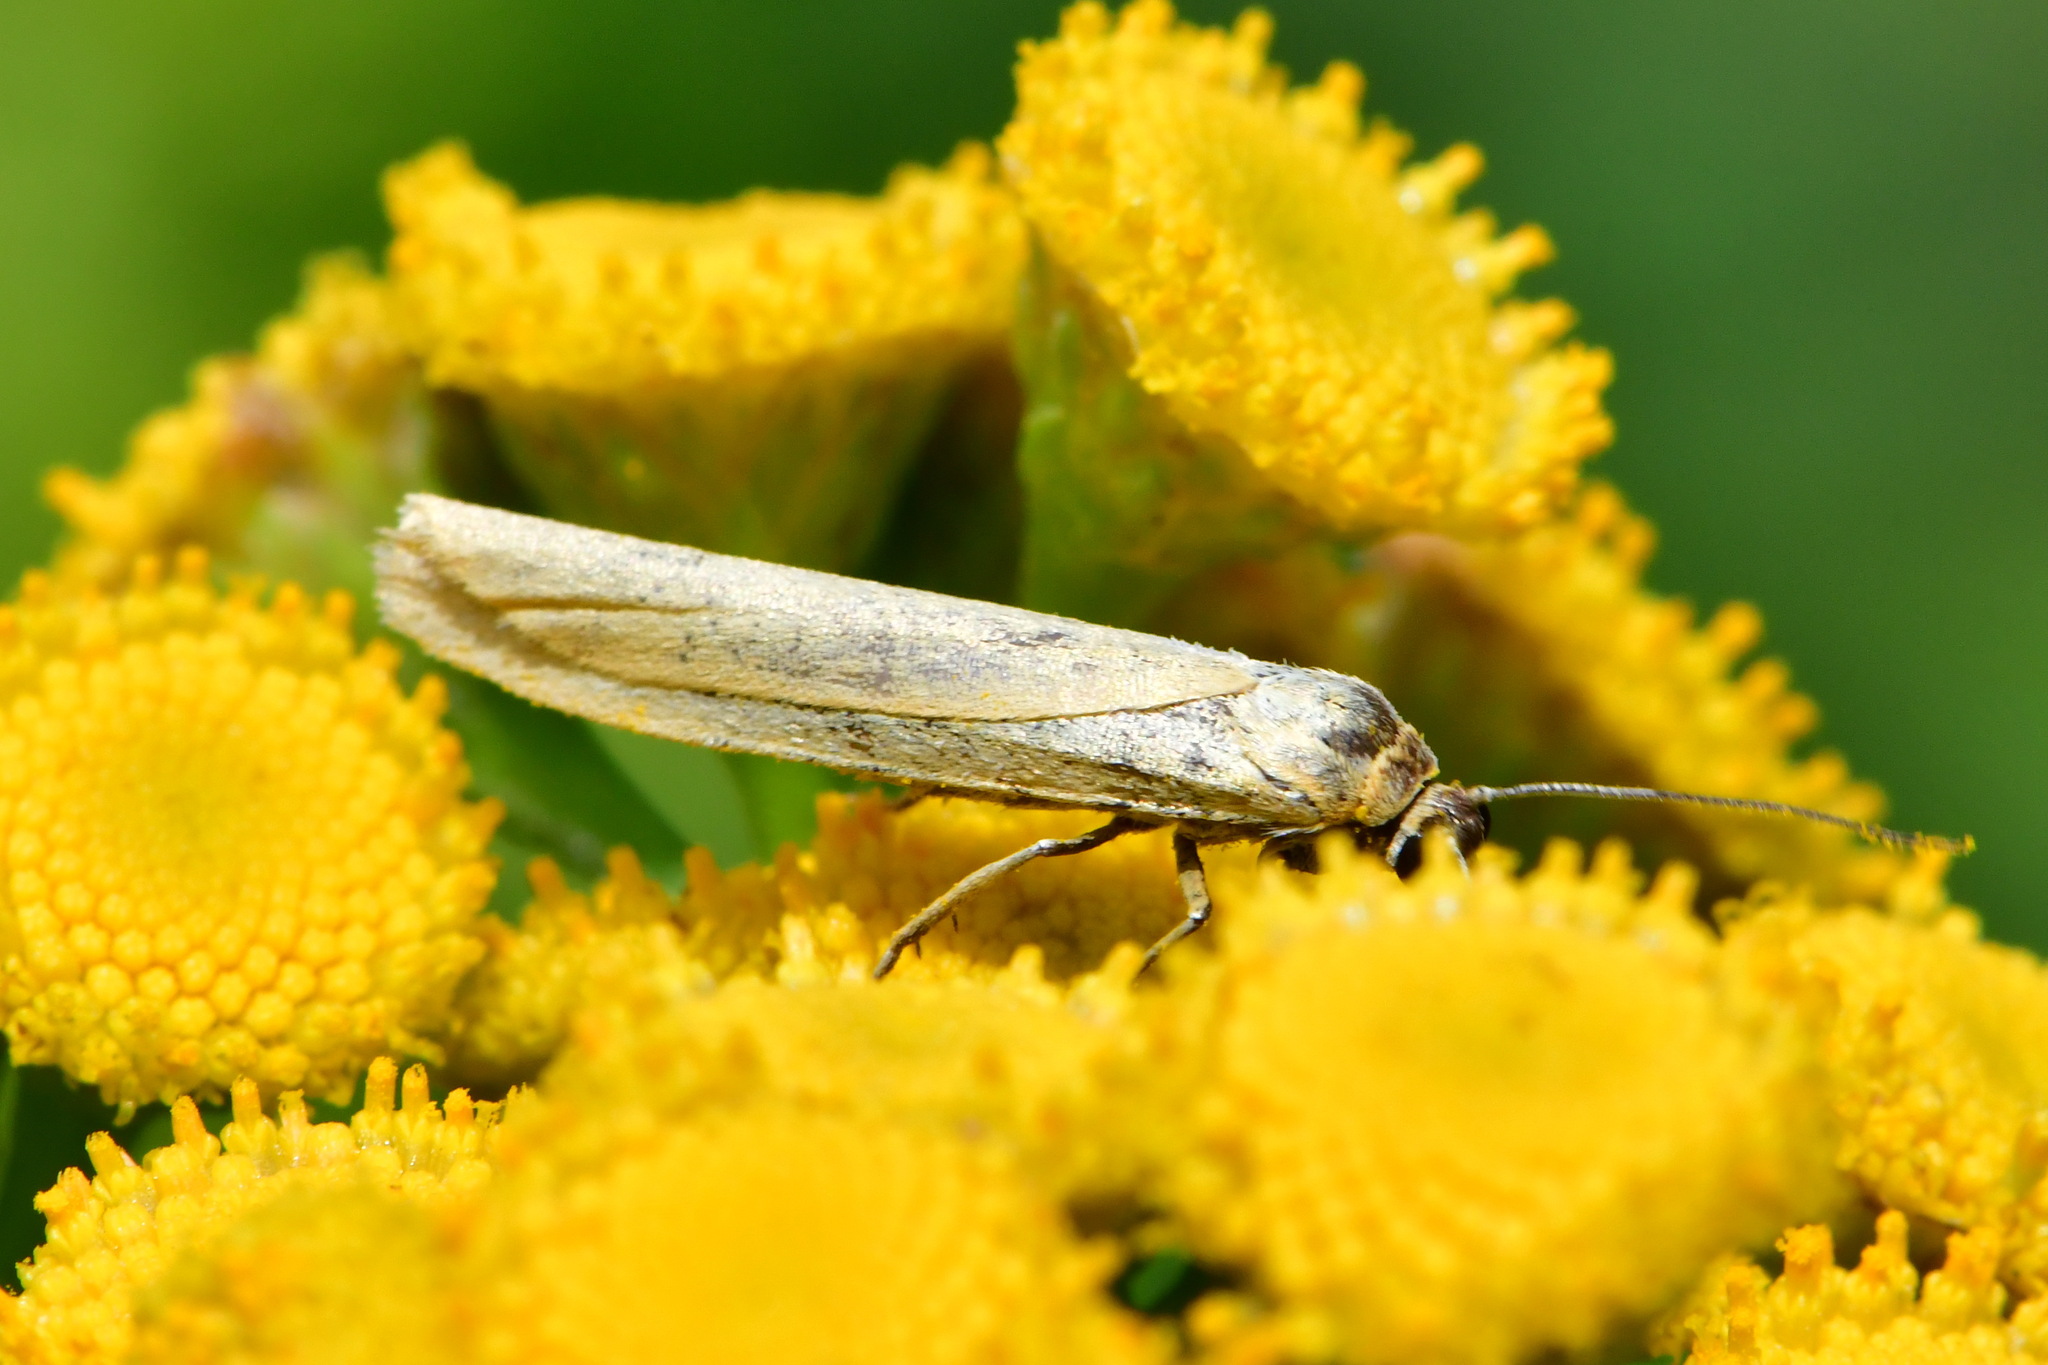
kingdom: Animalia
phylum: Arthropoda
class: Insecta
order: Lepidoptera
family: Erebidae
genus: Indalia
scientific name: Indalia lutarella
